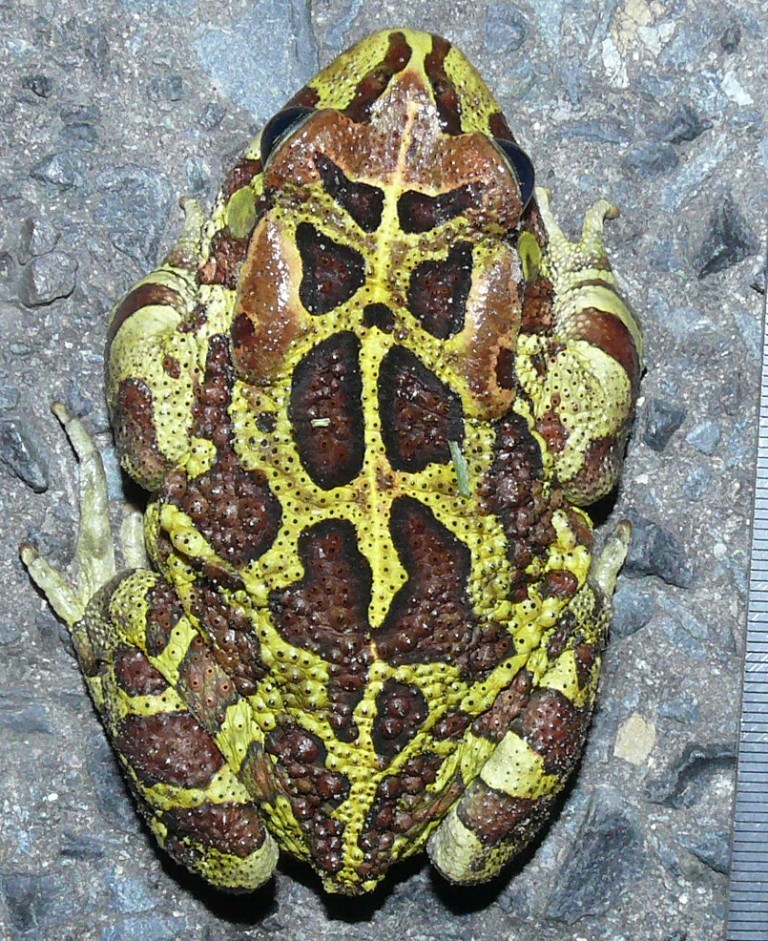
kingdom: Animalia
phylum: Chordata
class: Amphibia
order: Anura
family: Bufonidae
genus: Sclerophrys
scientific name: Sclerophrys pantherina
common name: Panther toad
